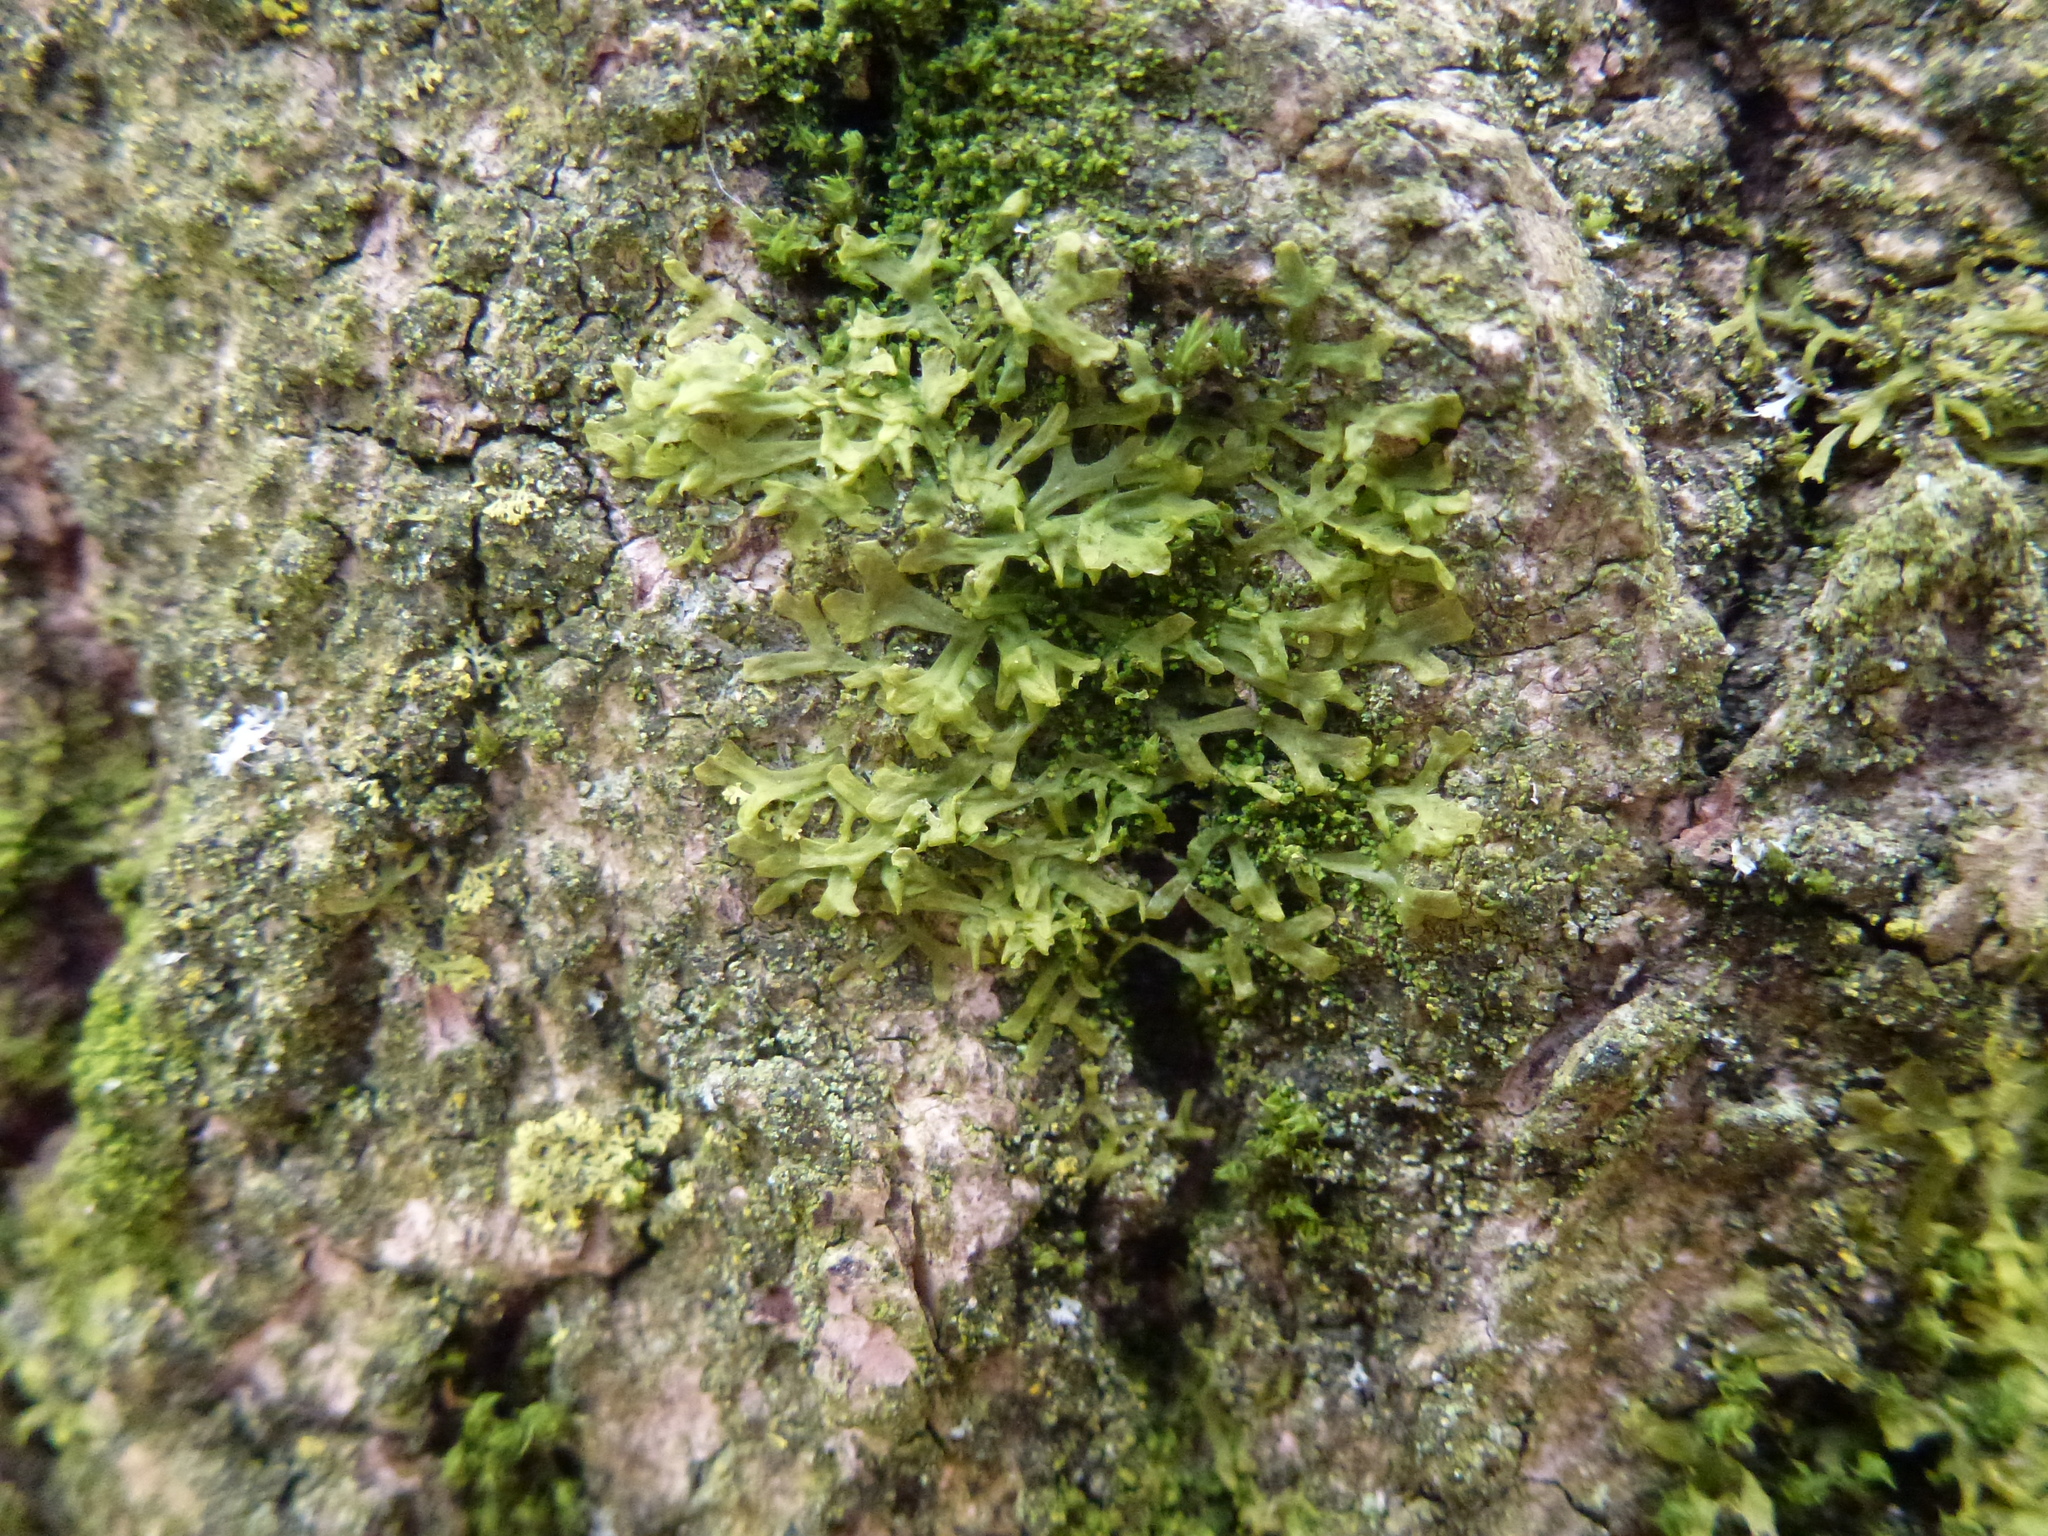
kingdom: Plantae
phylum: Marchantiophyta
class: Jungermanniopsida
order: Metzgeriales
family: Metzgeriaceae
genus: Metzgeria
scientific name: Metzgeria furcata
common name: Forked veilwort
